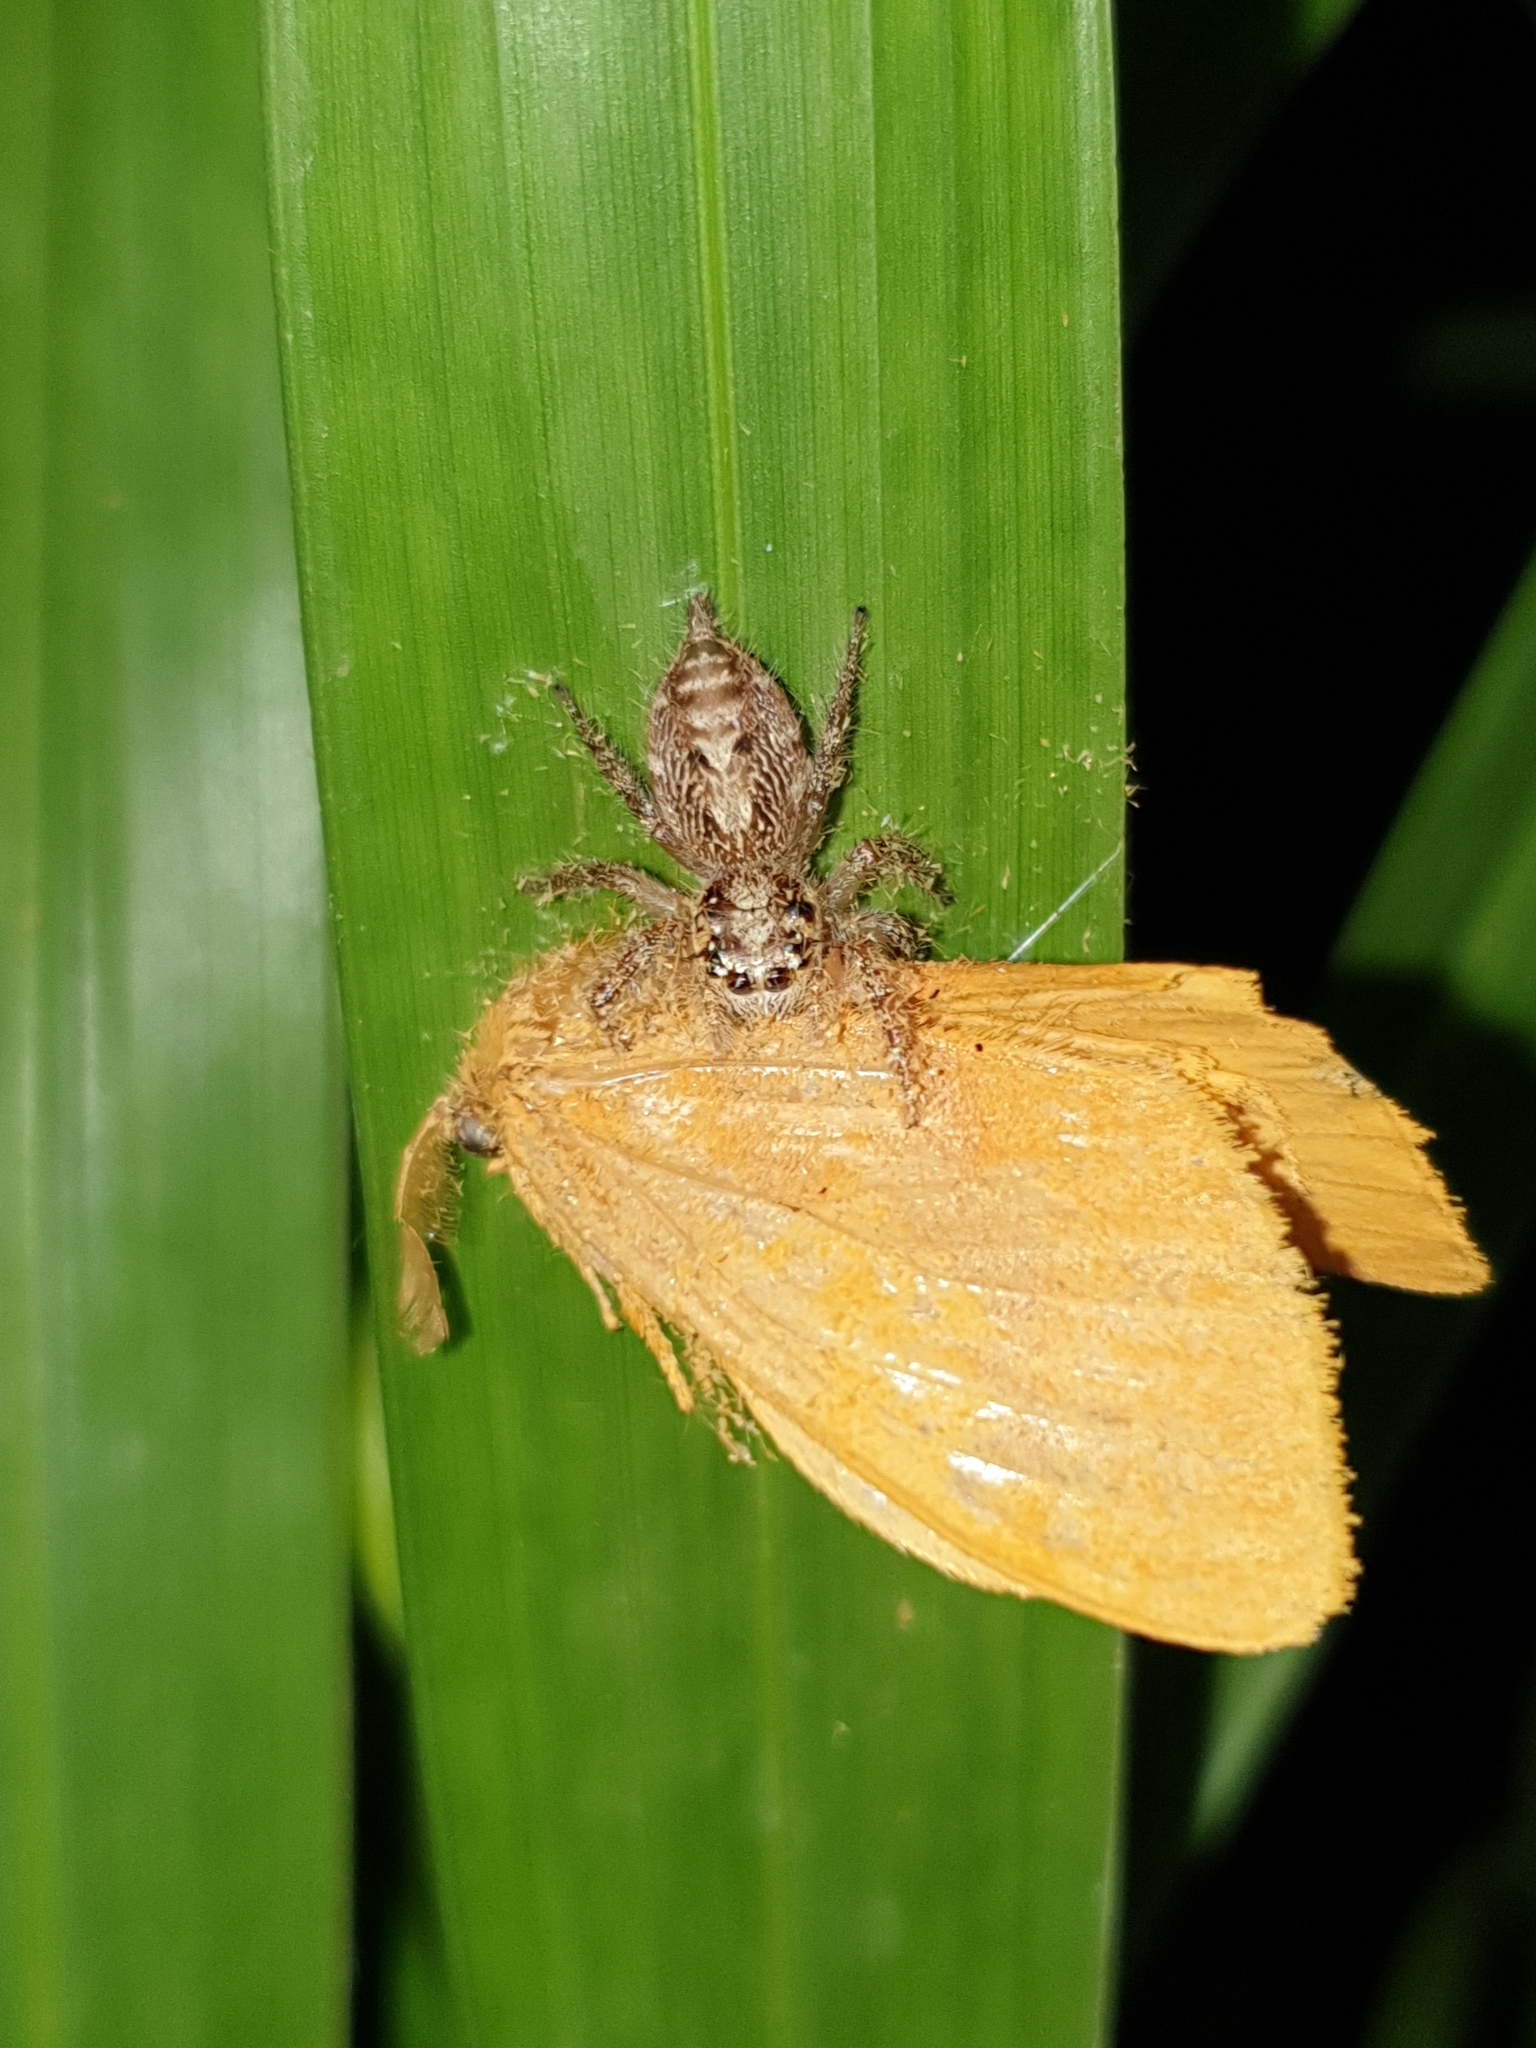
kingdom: Animalia
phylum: Arthropoda
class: Arachnida
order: Araneae
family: Salticidae
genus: Hyllus
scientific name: Hyllus semicupreus
